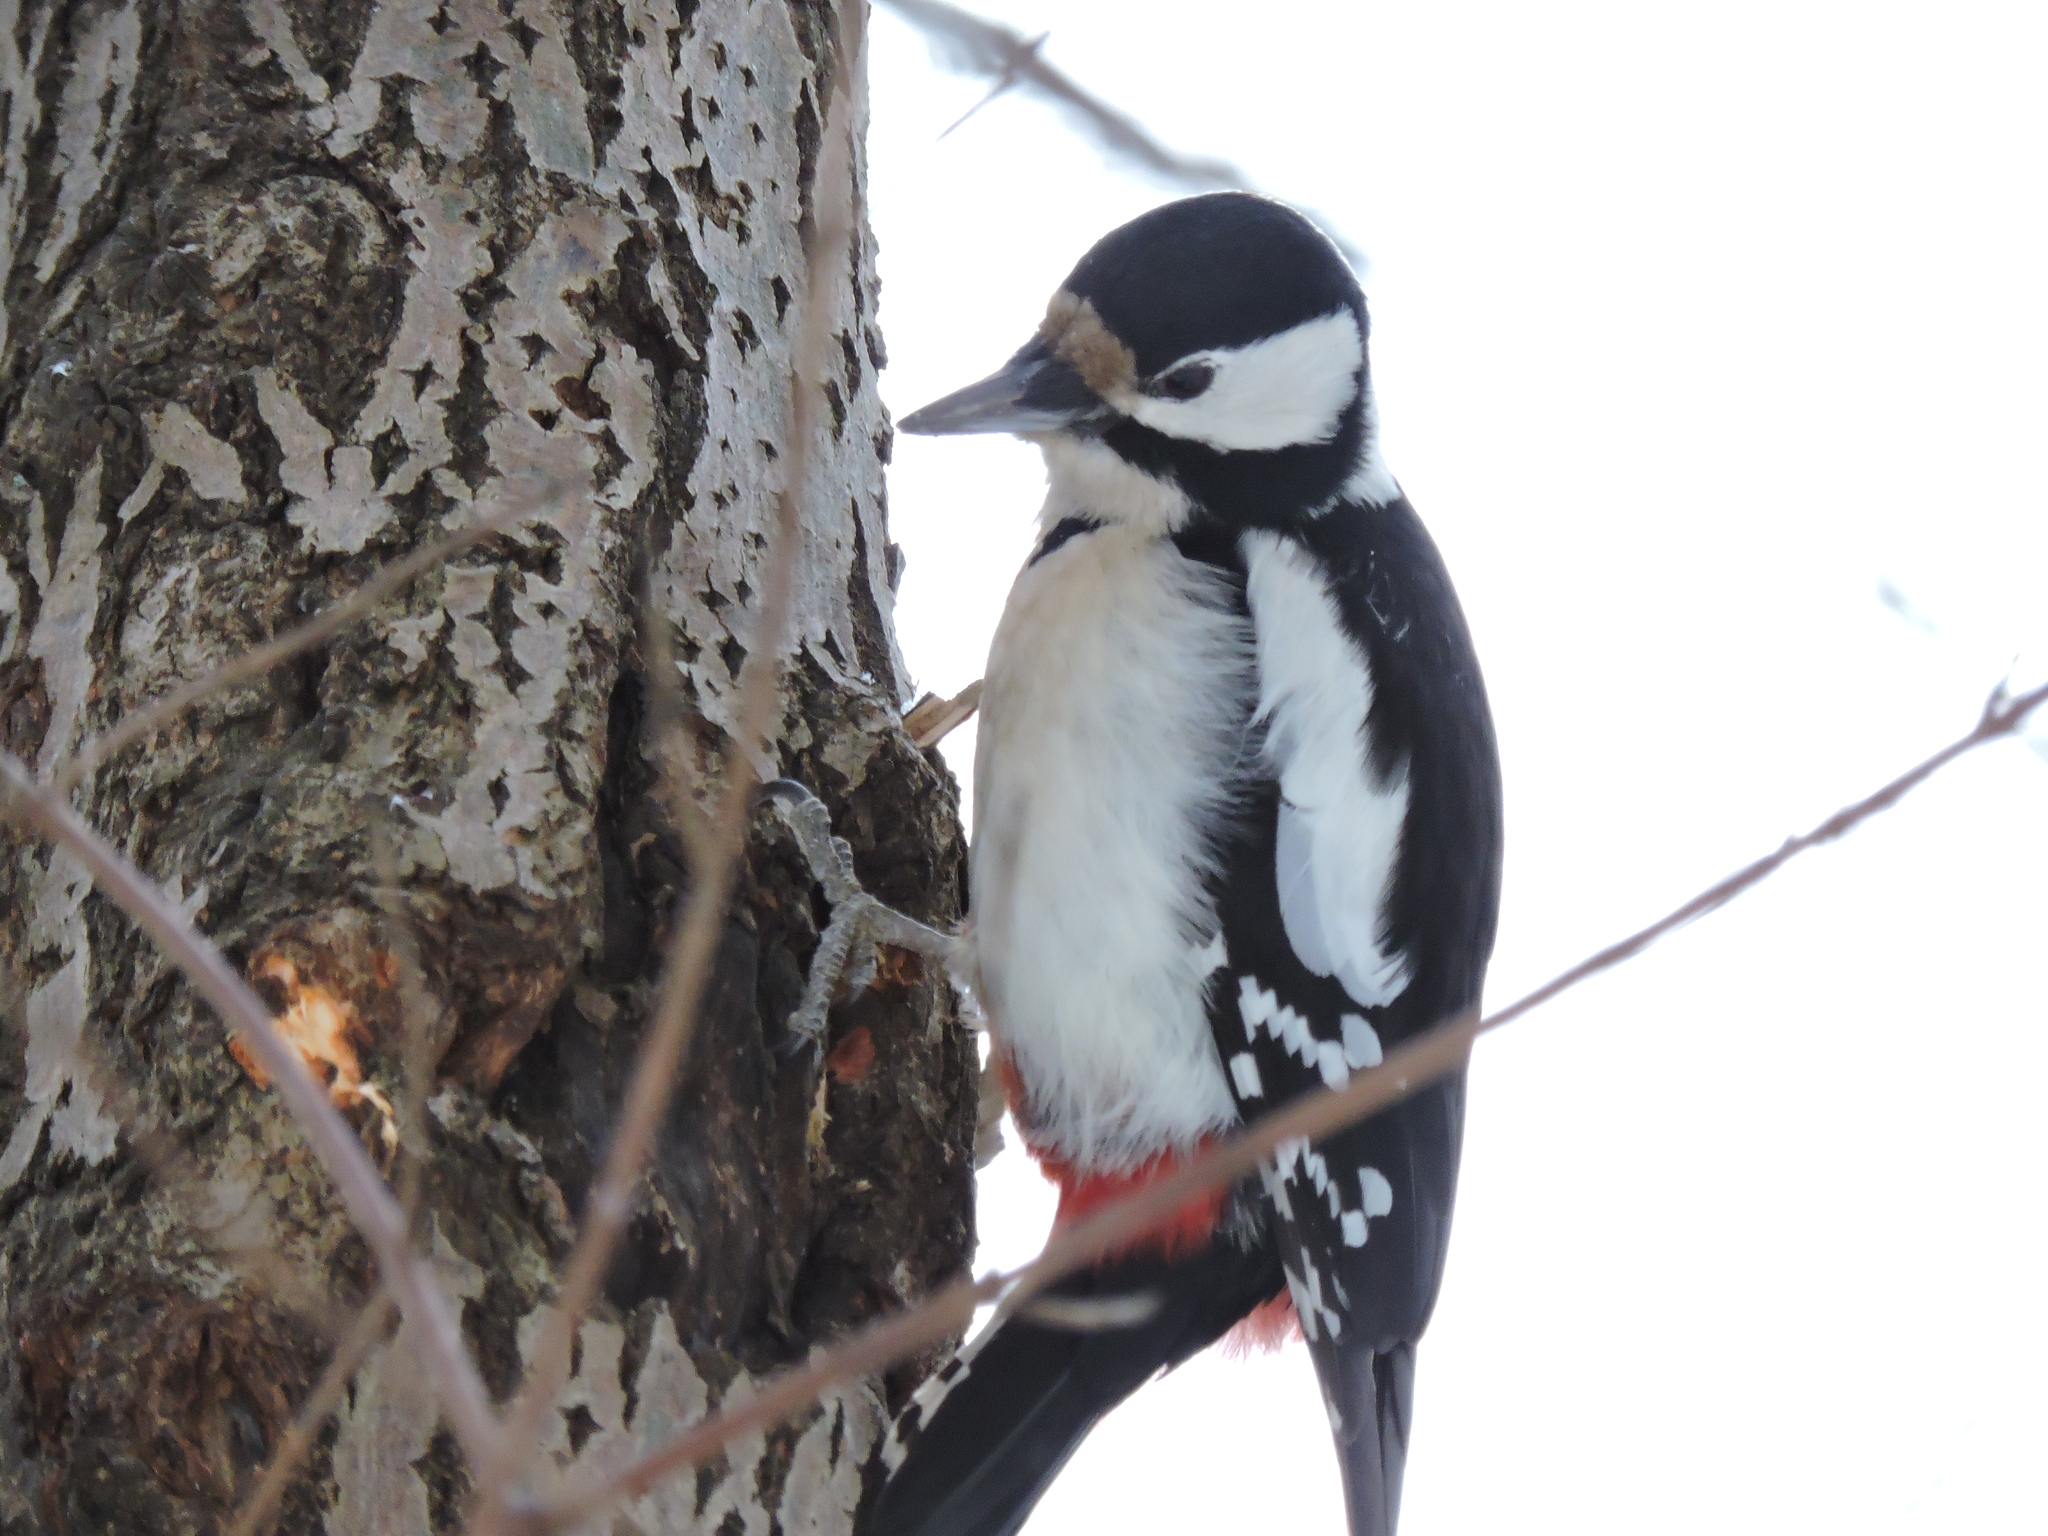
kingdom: Animalia
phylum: Chordata
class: Aves
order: Piciformes
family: Picidae
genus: Dendrocopos
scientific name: Dendrocopos major
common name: Great spotted woodpecker
